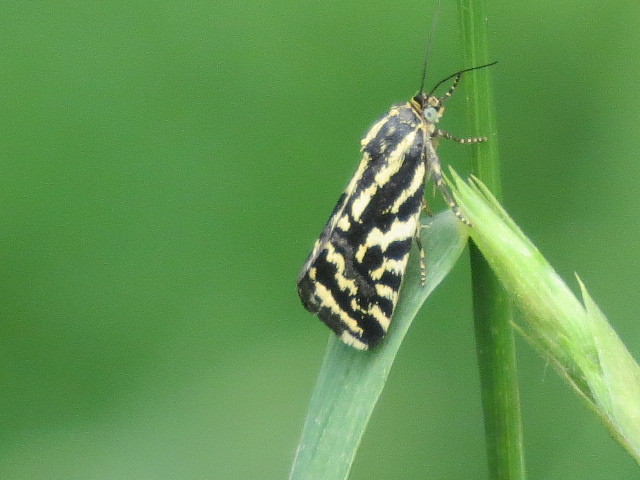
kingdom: Animalia
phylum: Arthropoda
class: Insecta
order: Lepidoptera
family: Noctuidae
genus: Acontia
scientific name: Acontia trabealis
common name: Spotted sulphur
